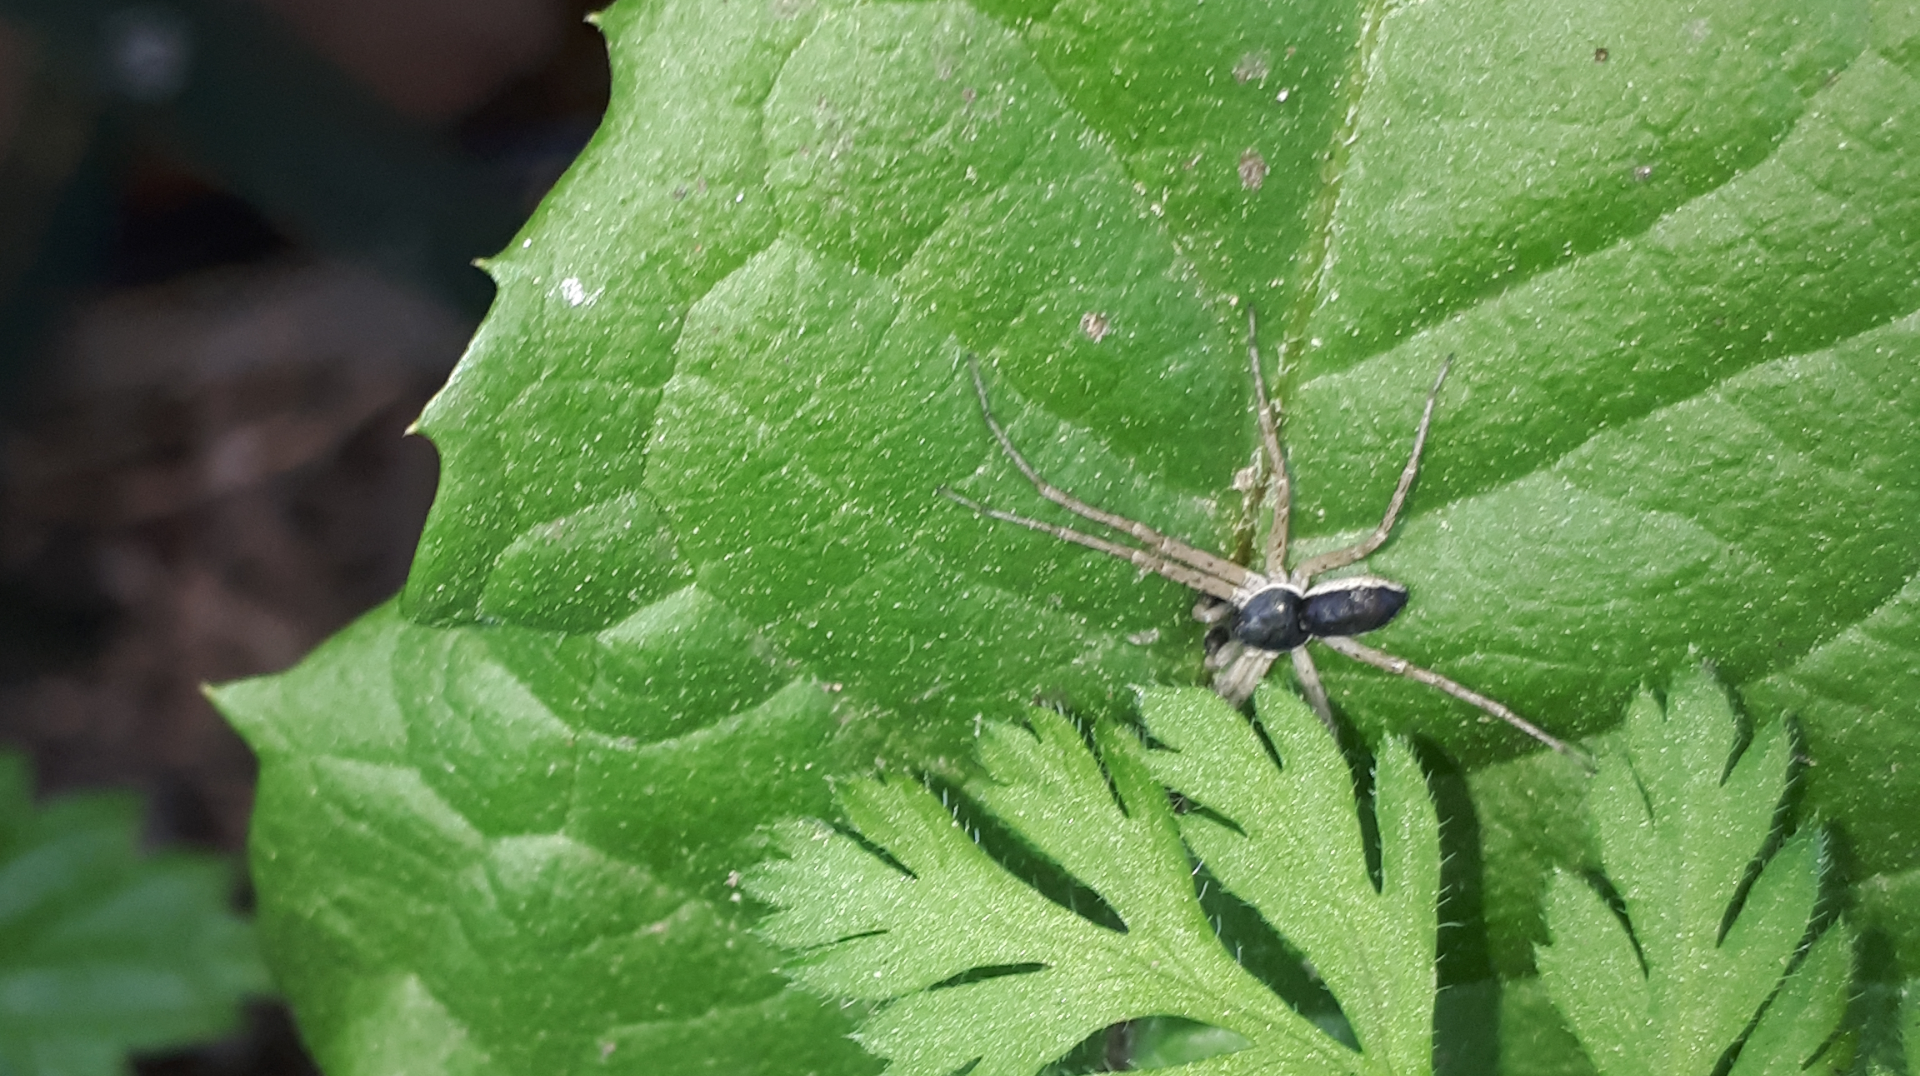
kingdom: Animalia
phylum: Arthropoda
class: Arachnida
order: Araneae
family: Philodromidae
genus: Philodromus
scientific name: Philodromus dispar
